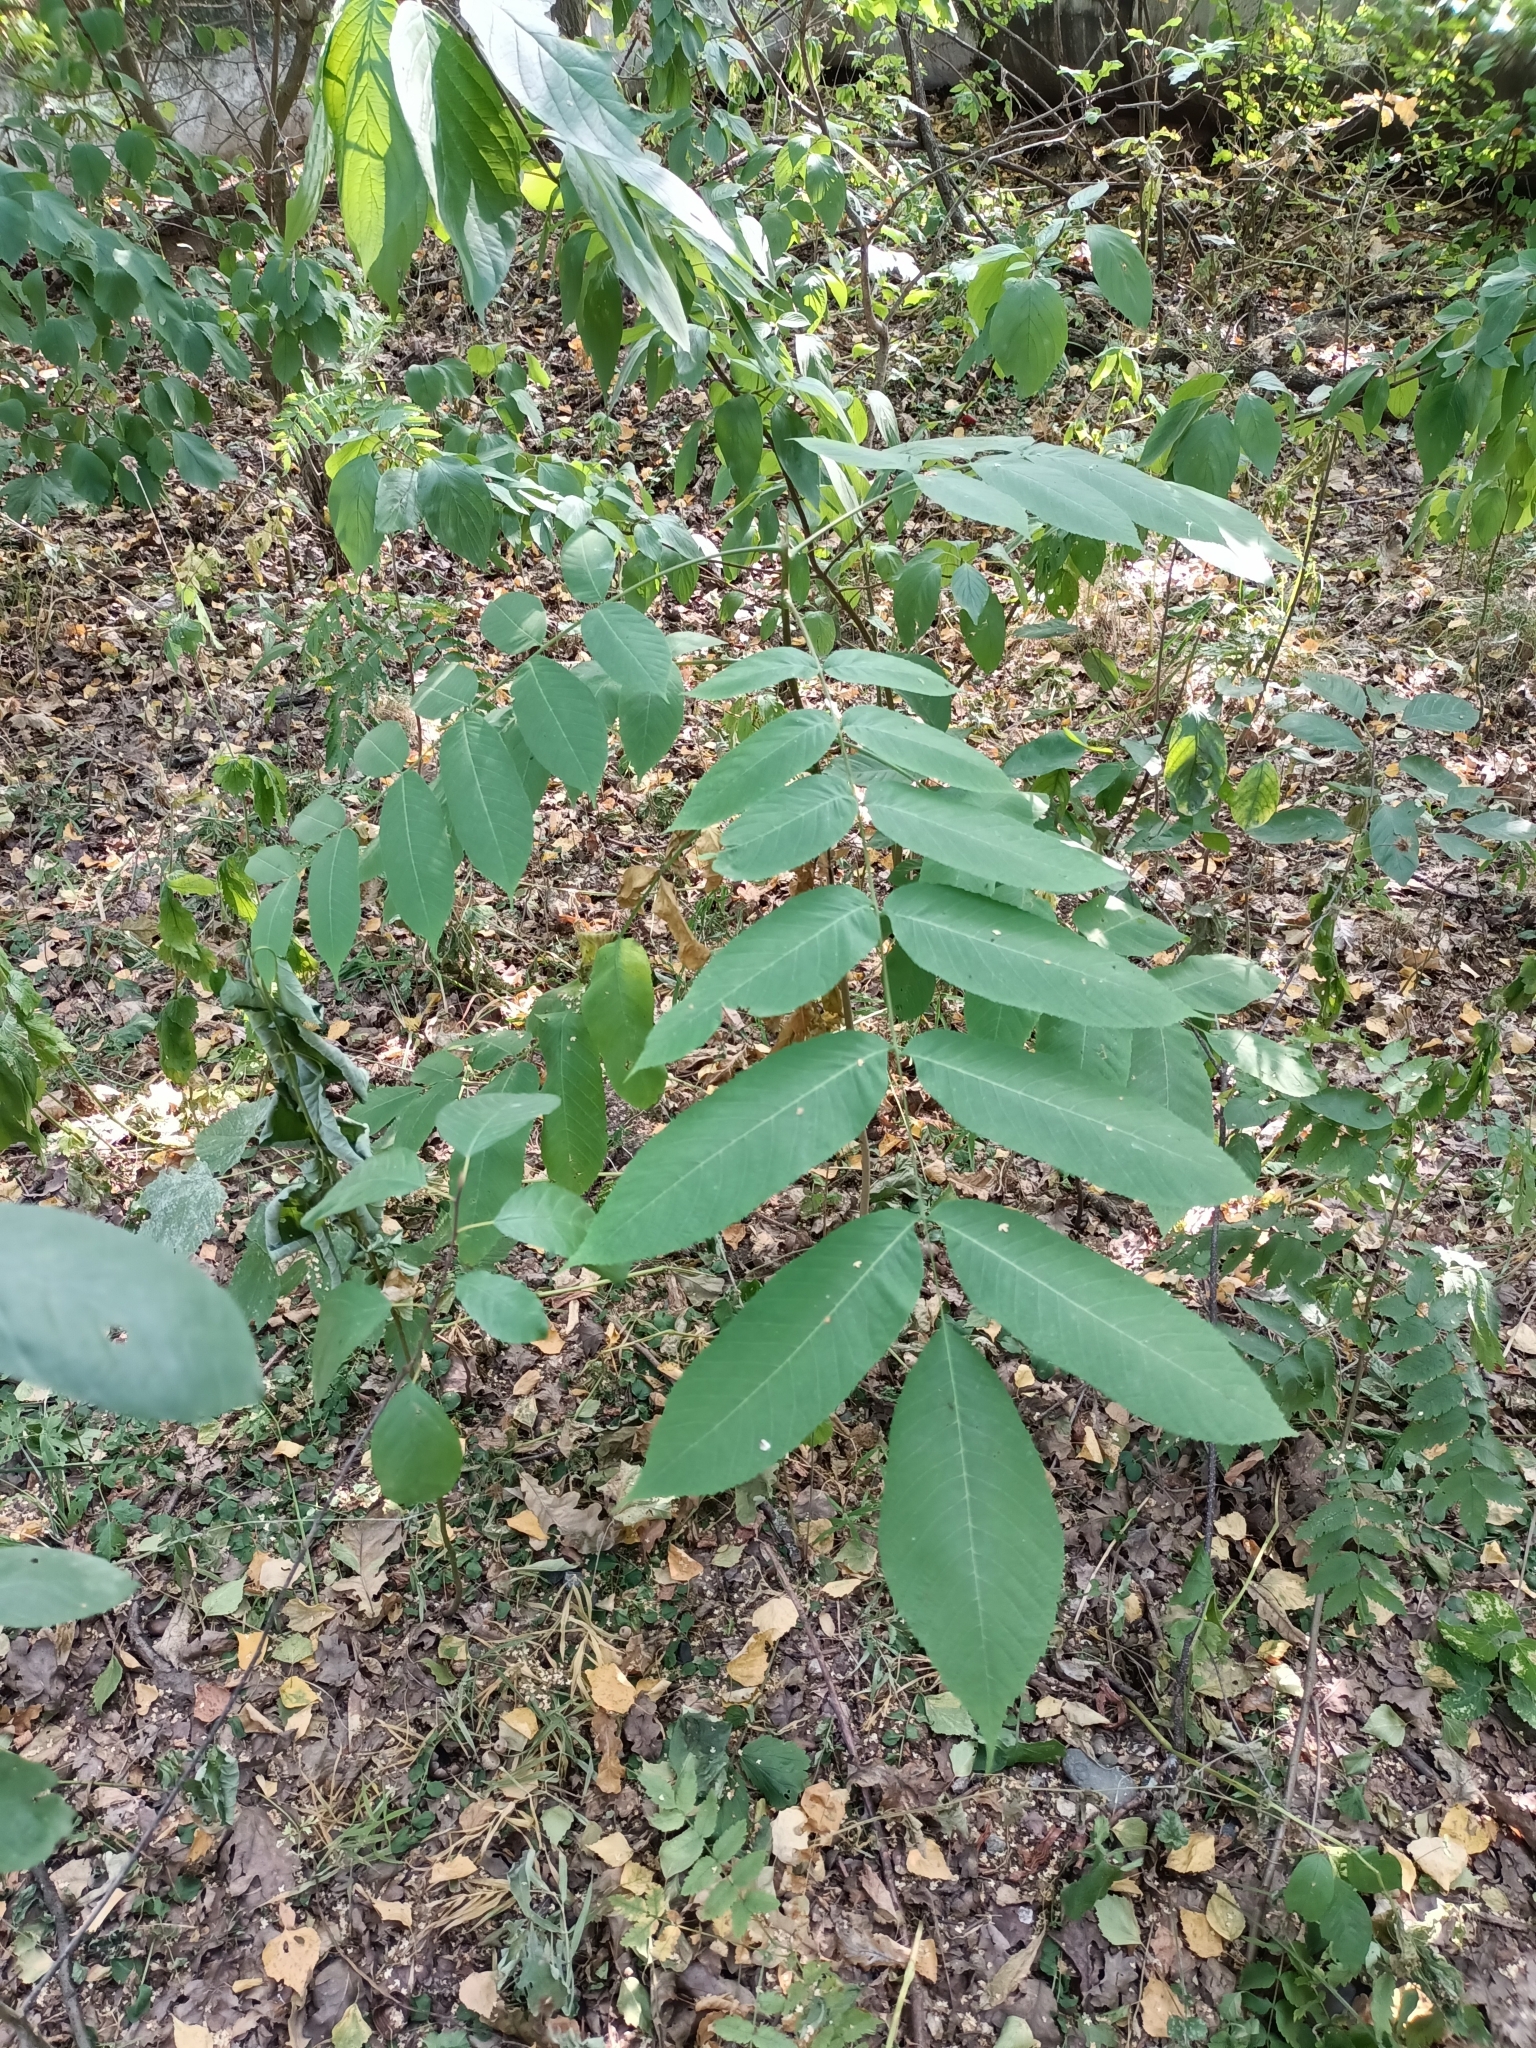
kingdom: Plantae
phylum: Tracheophyta
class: Magnoliopsida
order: Fagales
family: Juglandaceae
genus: Juglans
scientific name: Juglans mandshurica
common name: Manchurian walnut
